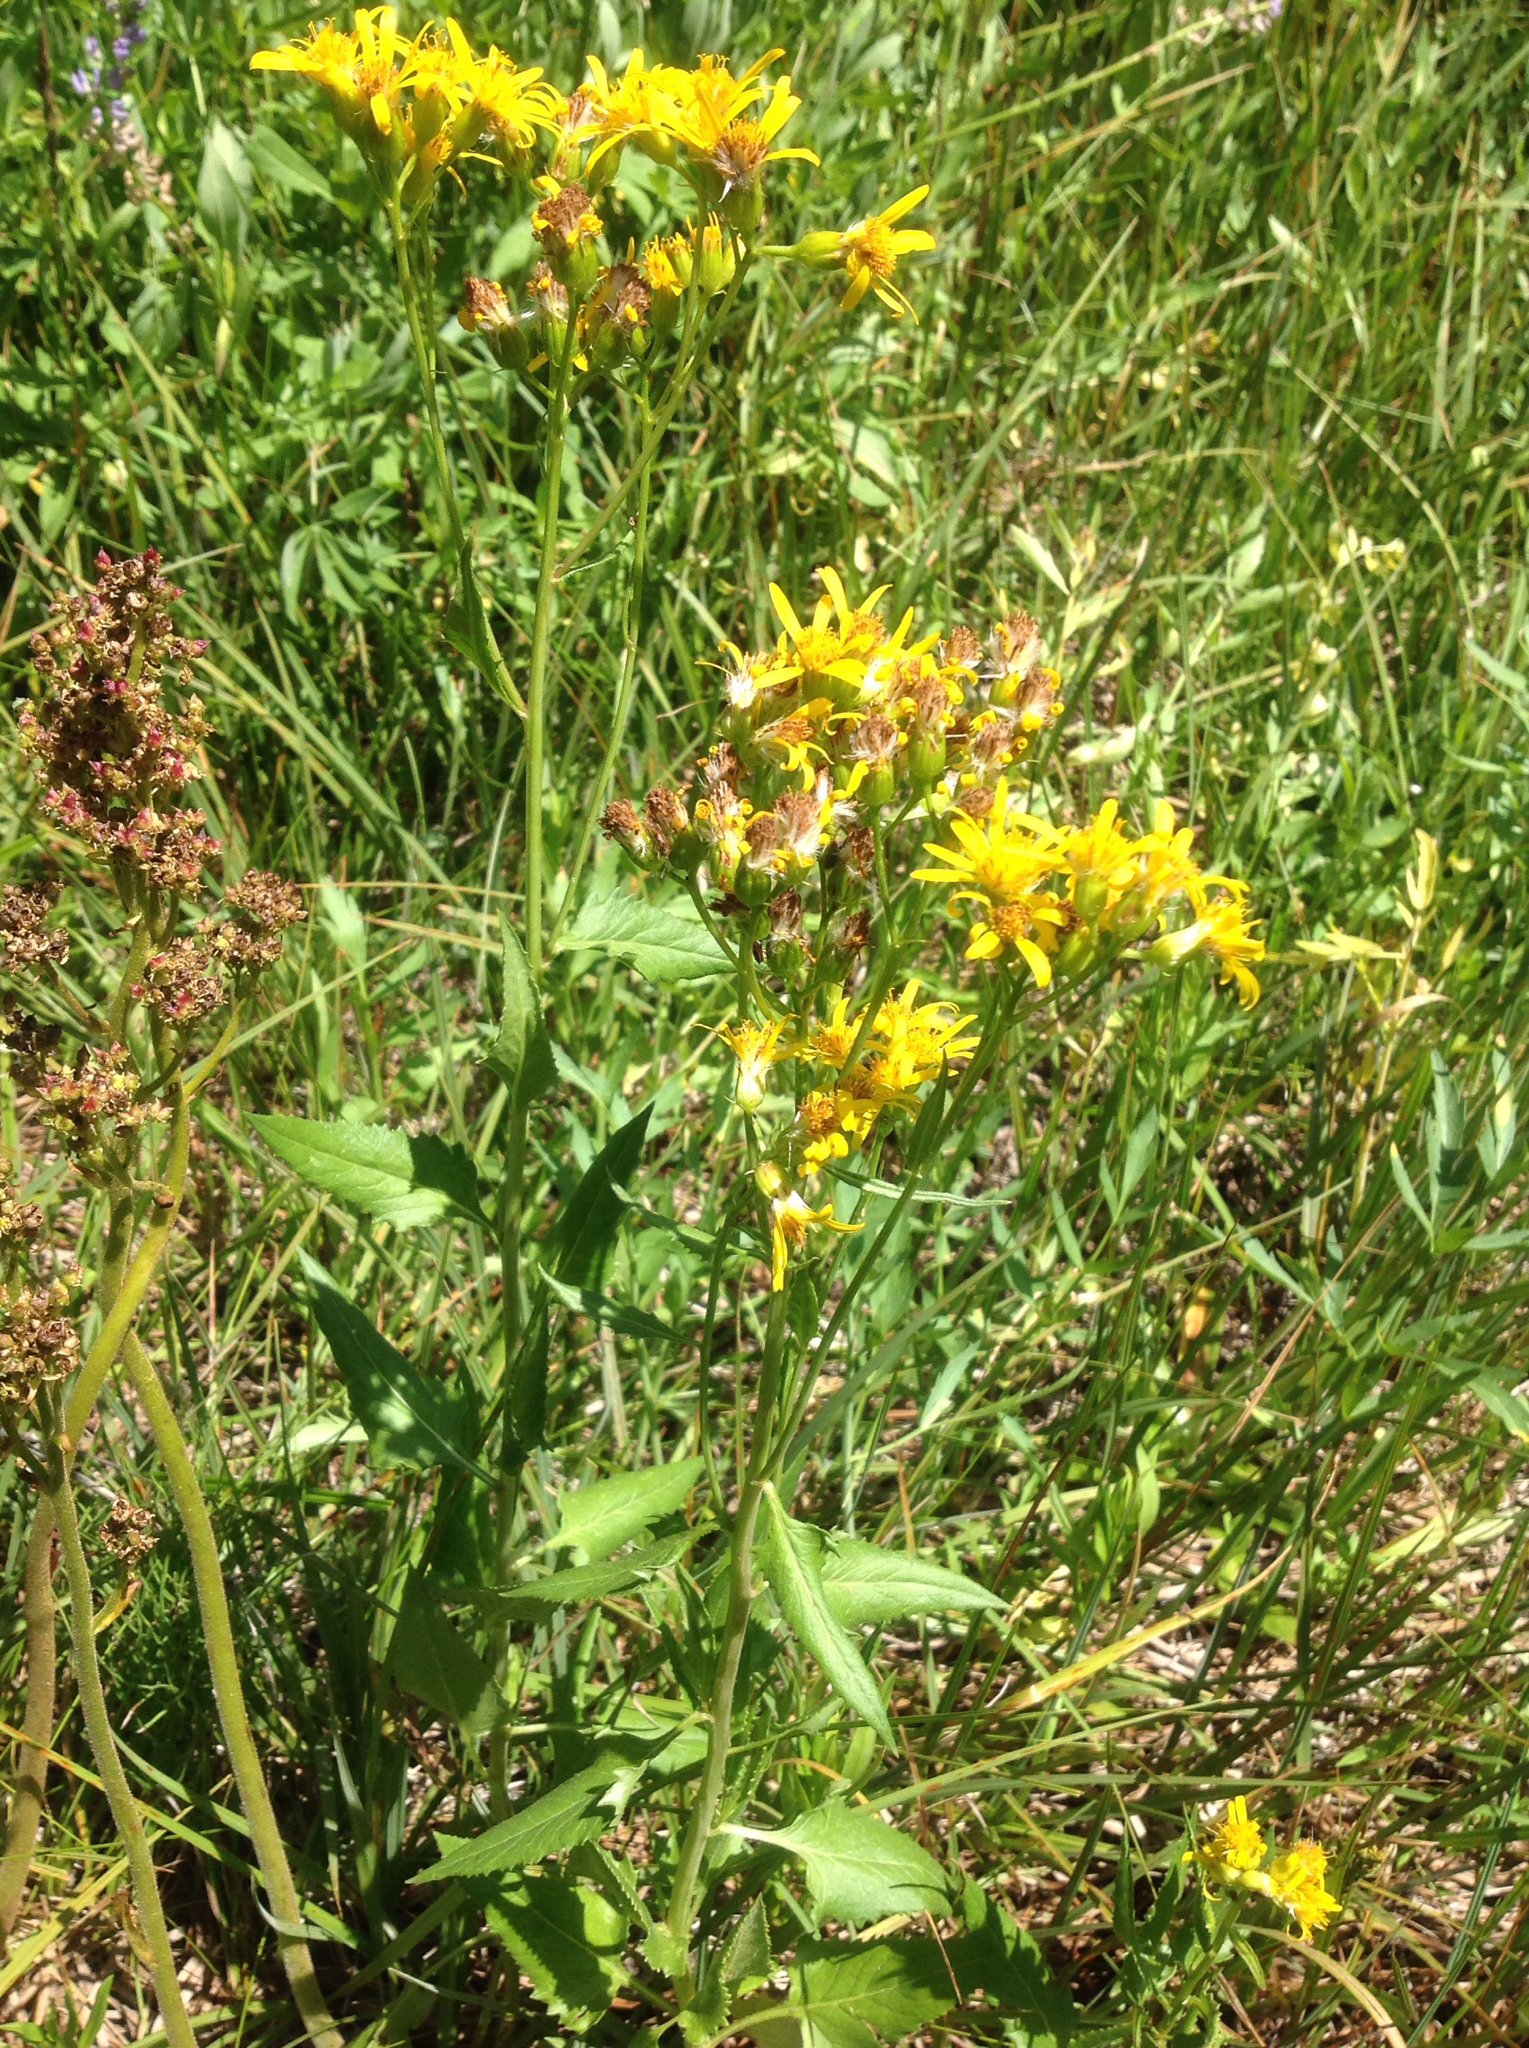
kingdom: Plantae
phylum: Tracheophyta
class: Magnoliopsida
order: Asterales
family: Asteraceae
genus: Senecio
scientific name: Senecio triangularis
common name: Arrowleaf butterweed
